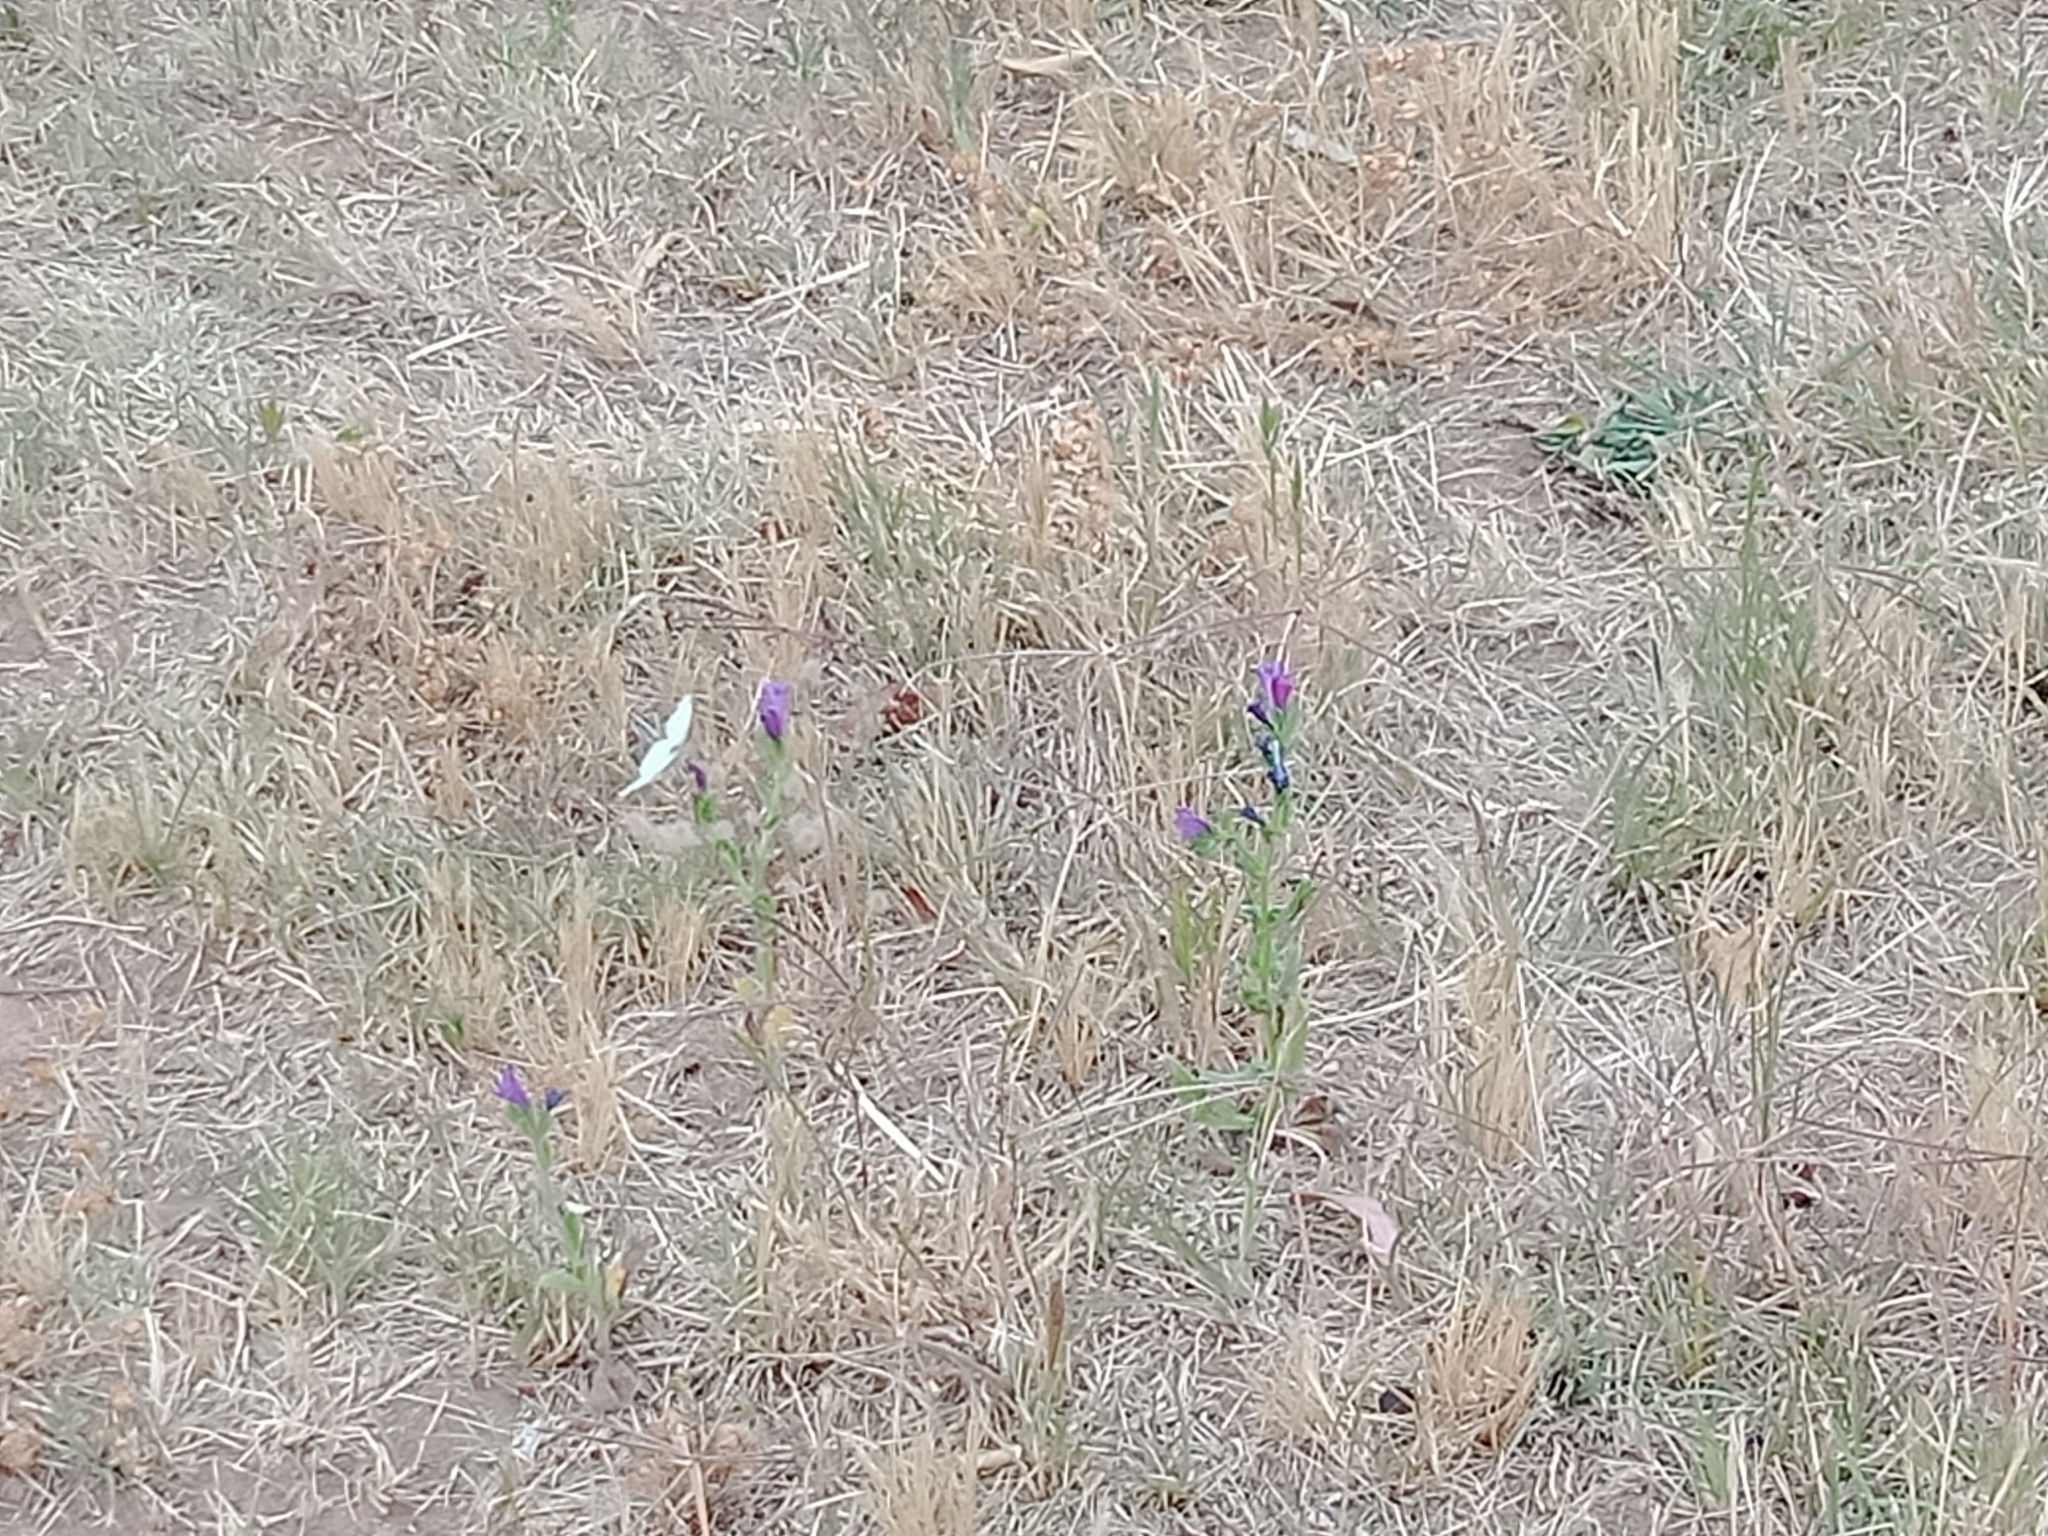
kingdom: Plantae
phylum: Tracheophyta
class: Magnoliopsida
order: Boraginales
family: Boraginaceae
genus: Echium
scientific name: Echium plantagineum
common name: Purple viper's-bugloss
